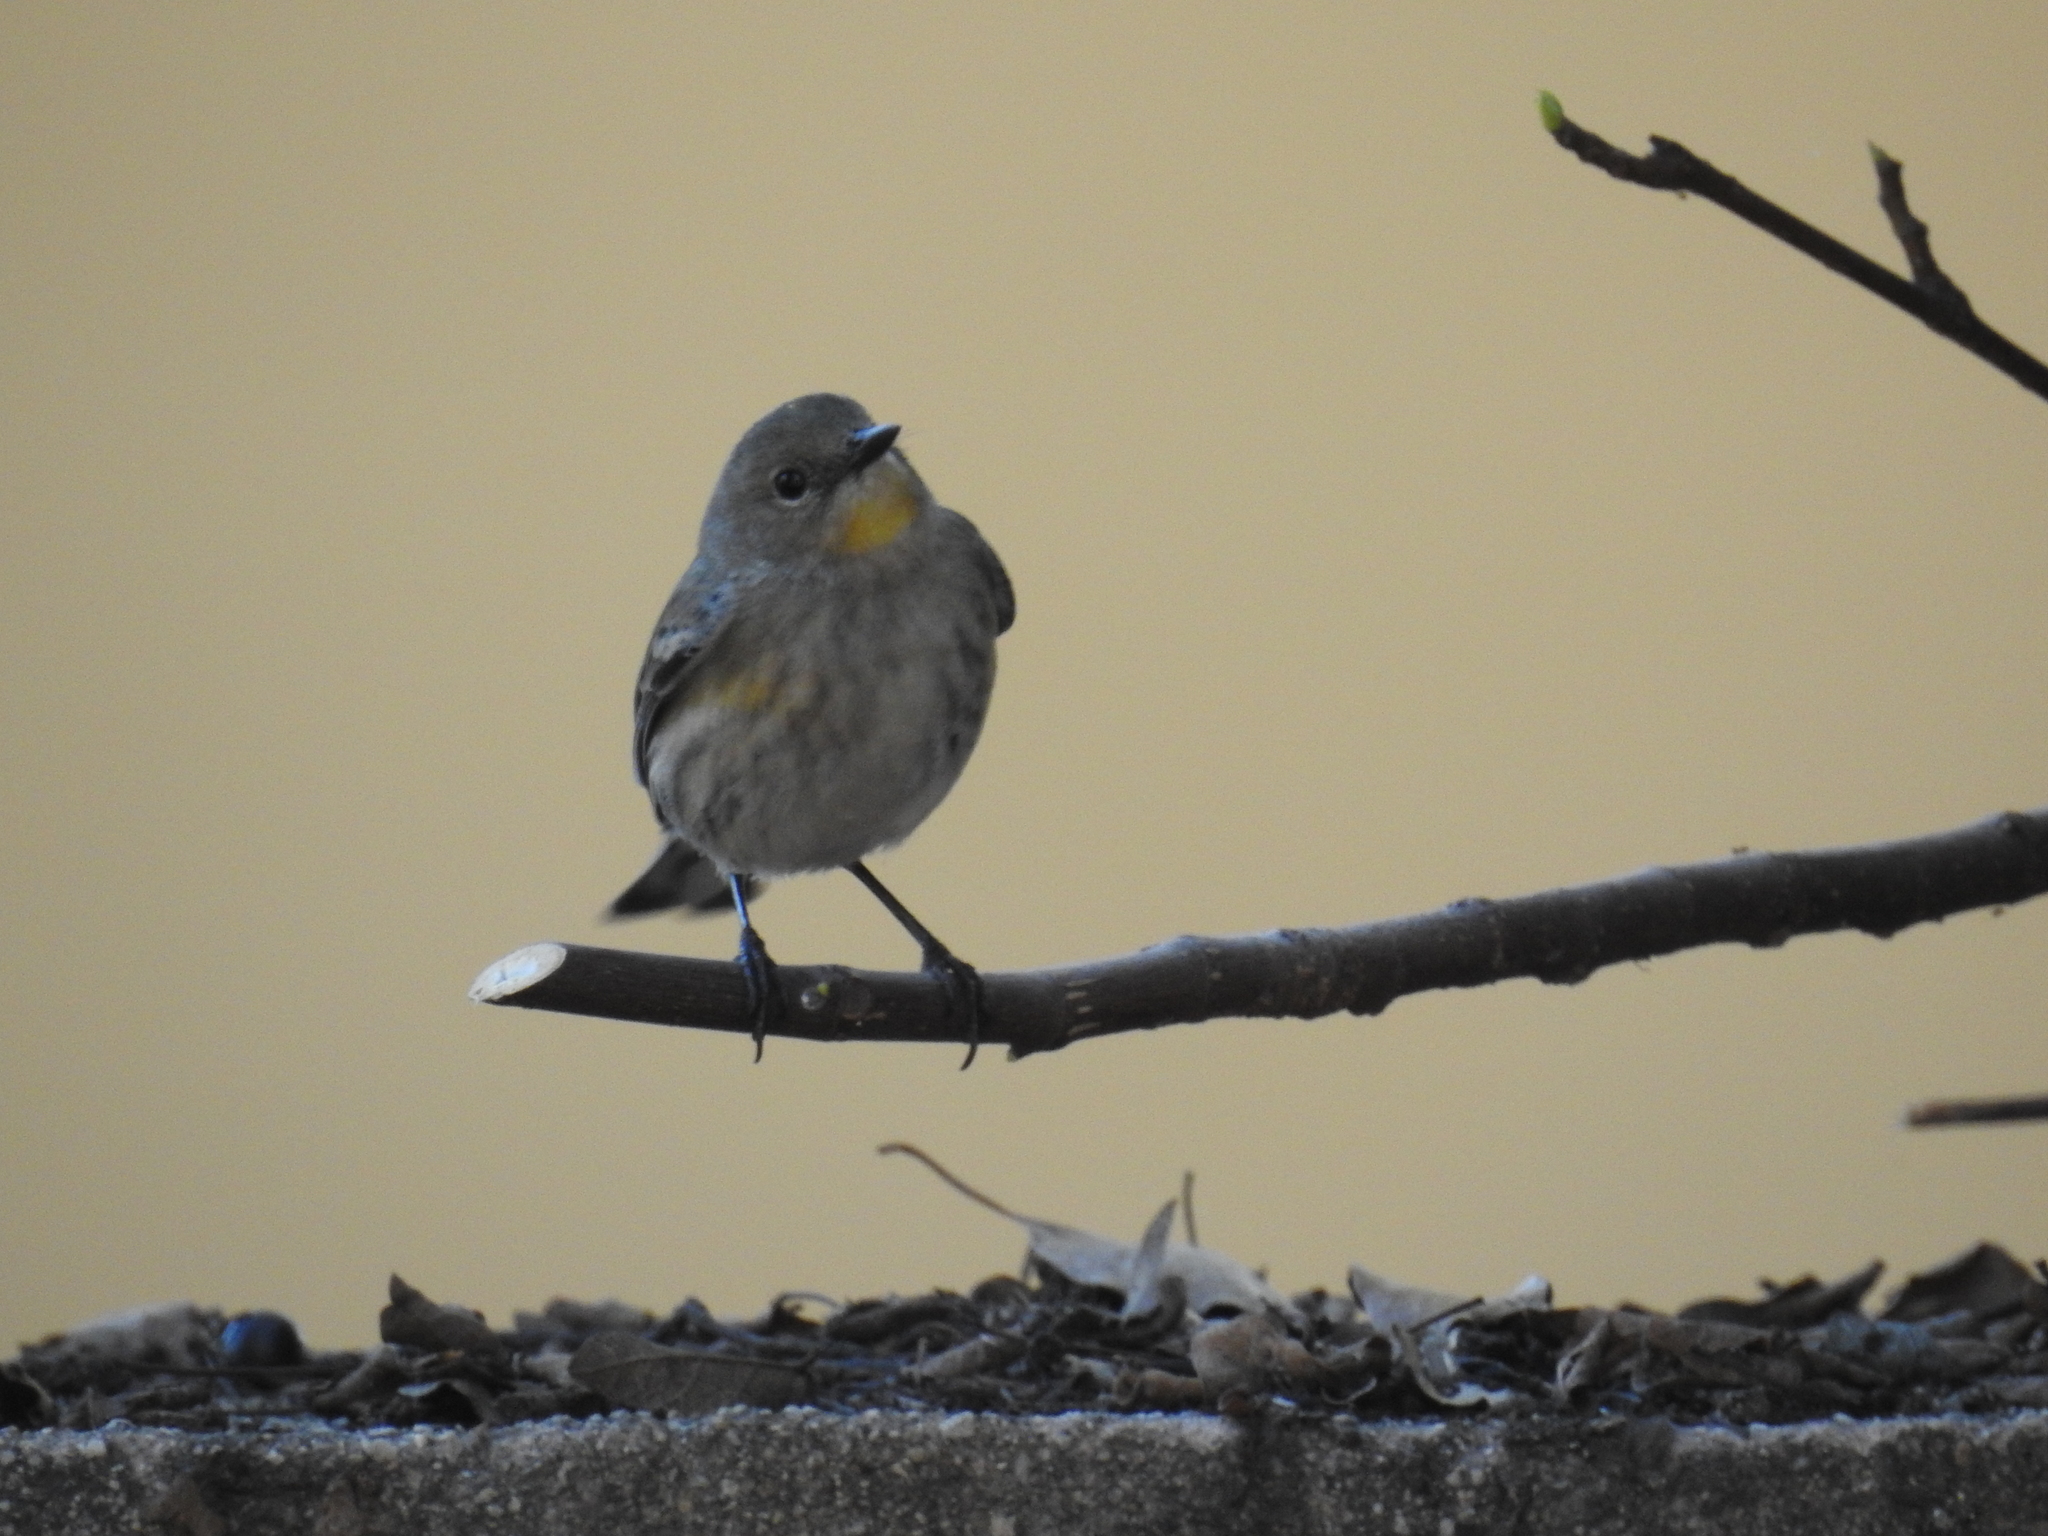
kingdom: Animalia
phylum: Chordata
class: Aves
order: Passeriformes
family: Parulidae
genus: Setophaga
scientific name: Setophaga coronata
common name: Myrtle warbler
